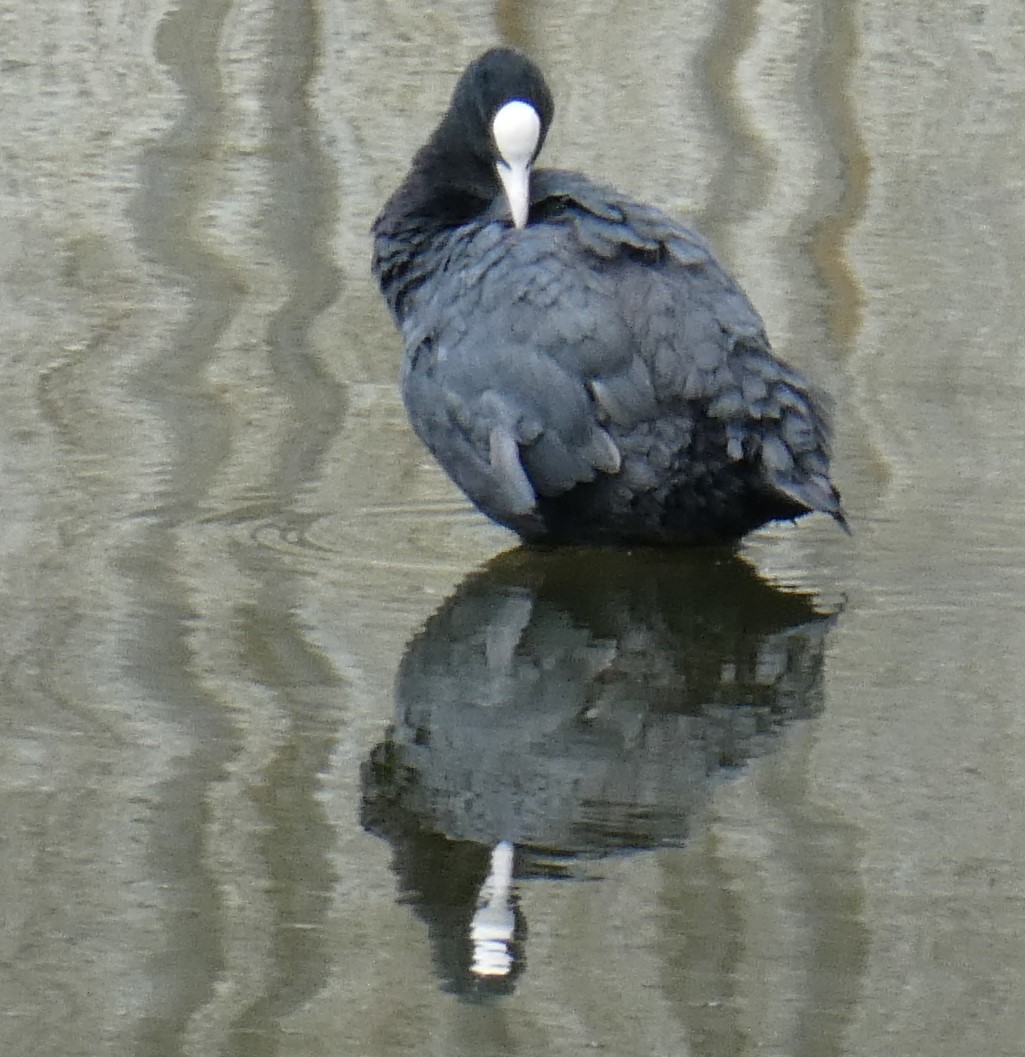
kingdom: Animalia
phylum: Chordata
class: Aves
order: Gruiformes
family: Rallidae
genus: Fulica
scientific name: Fulica atra
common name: Eurasian coot
